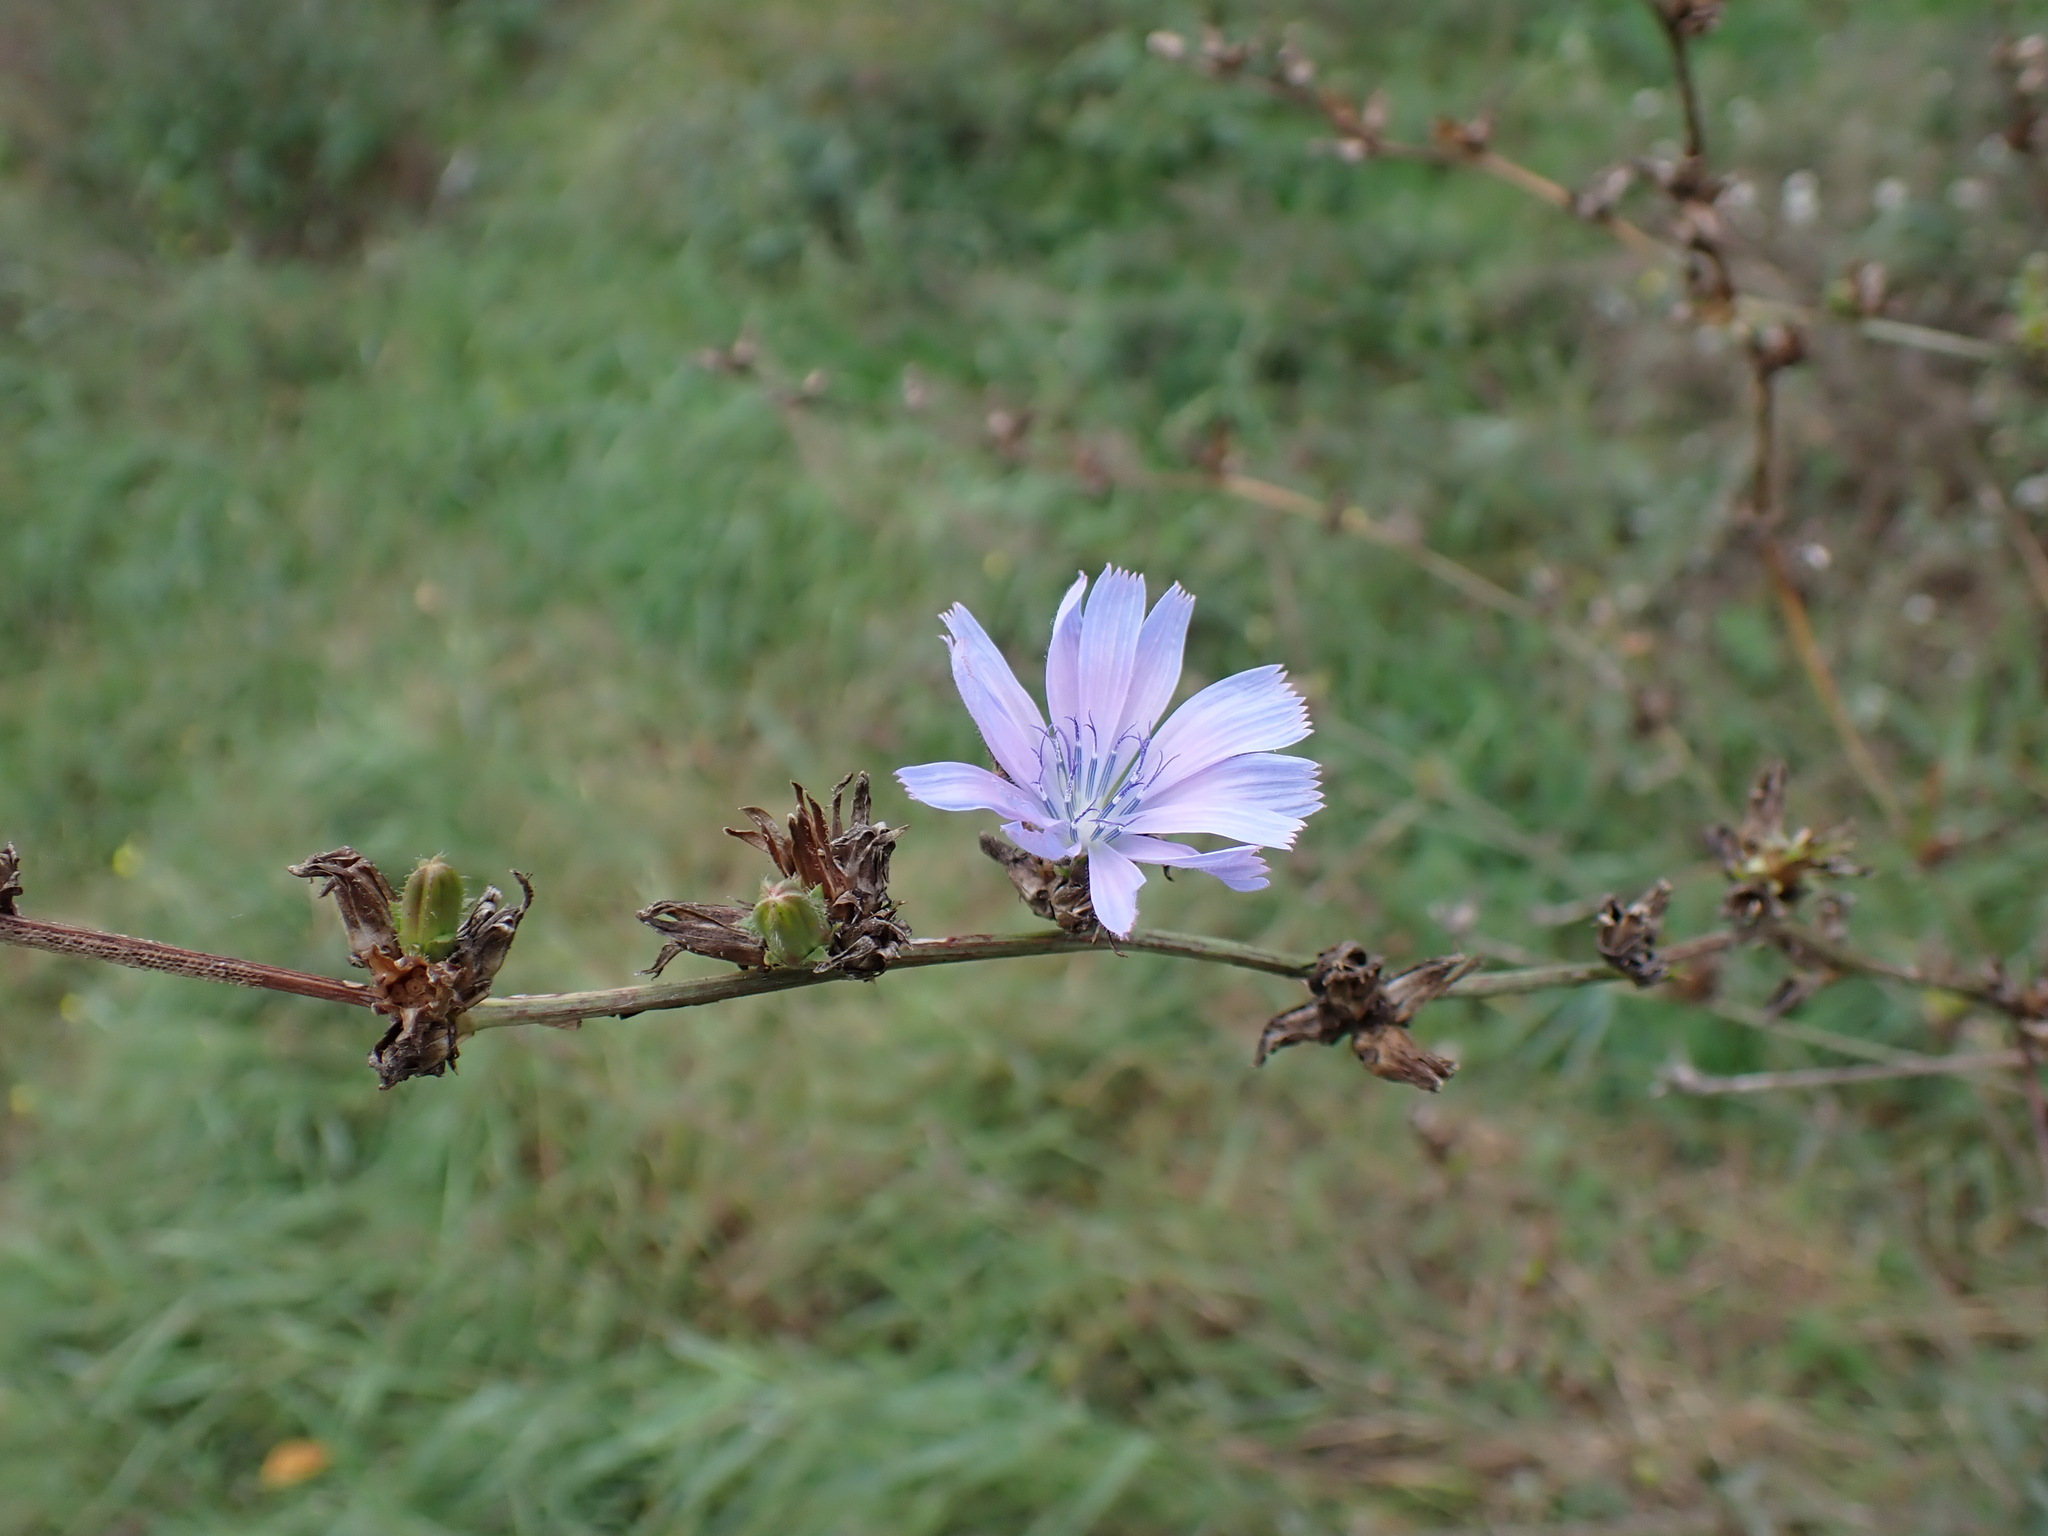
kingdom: Plantae
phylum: Tracheophyta
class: Magnoliopsida
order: Asterales
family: Asteraceae
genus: Cichorium
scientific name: Cichorium intybus
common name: Chicory
